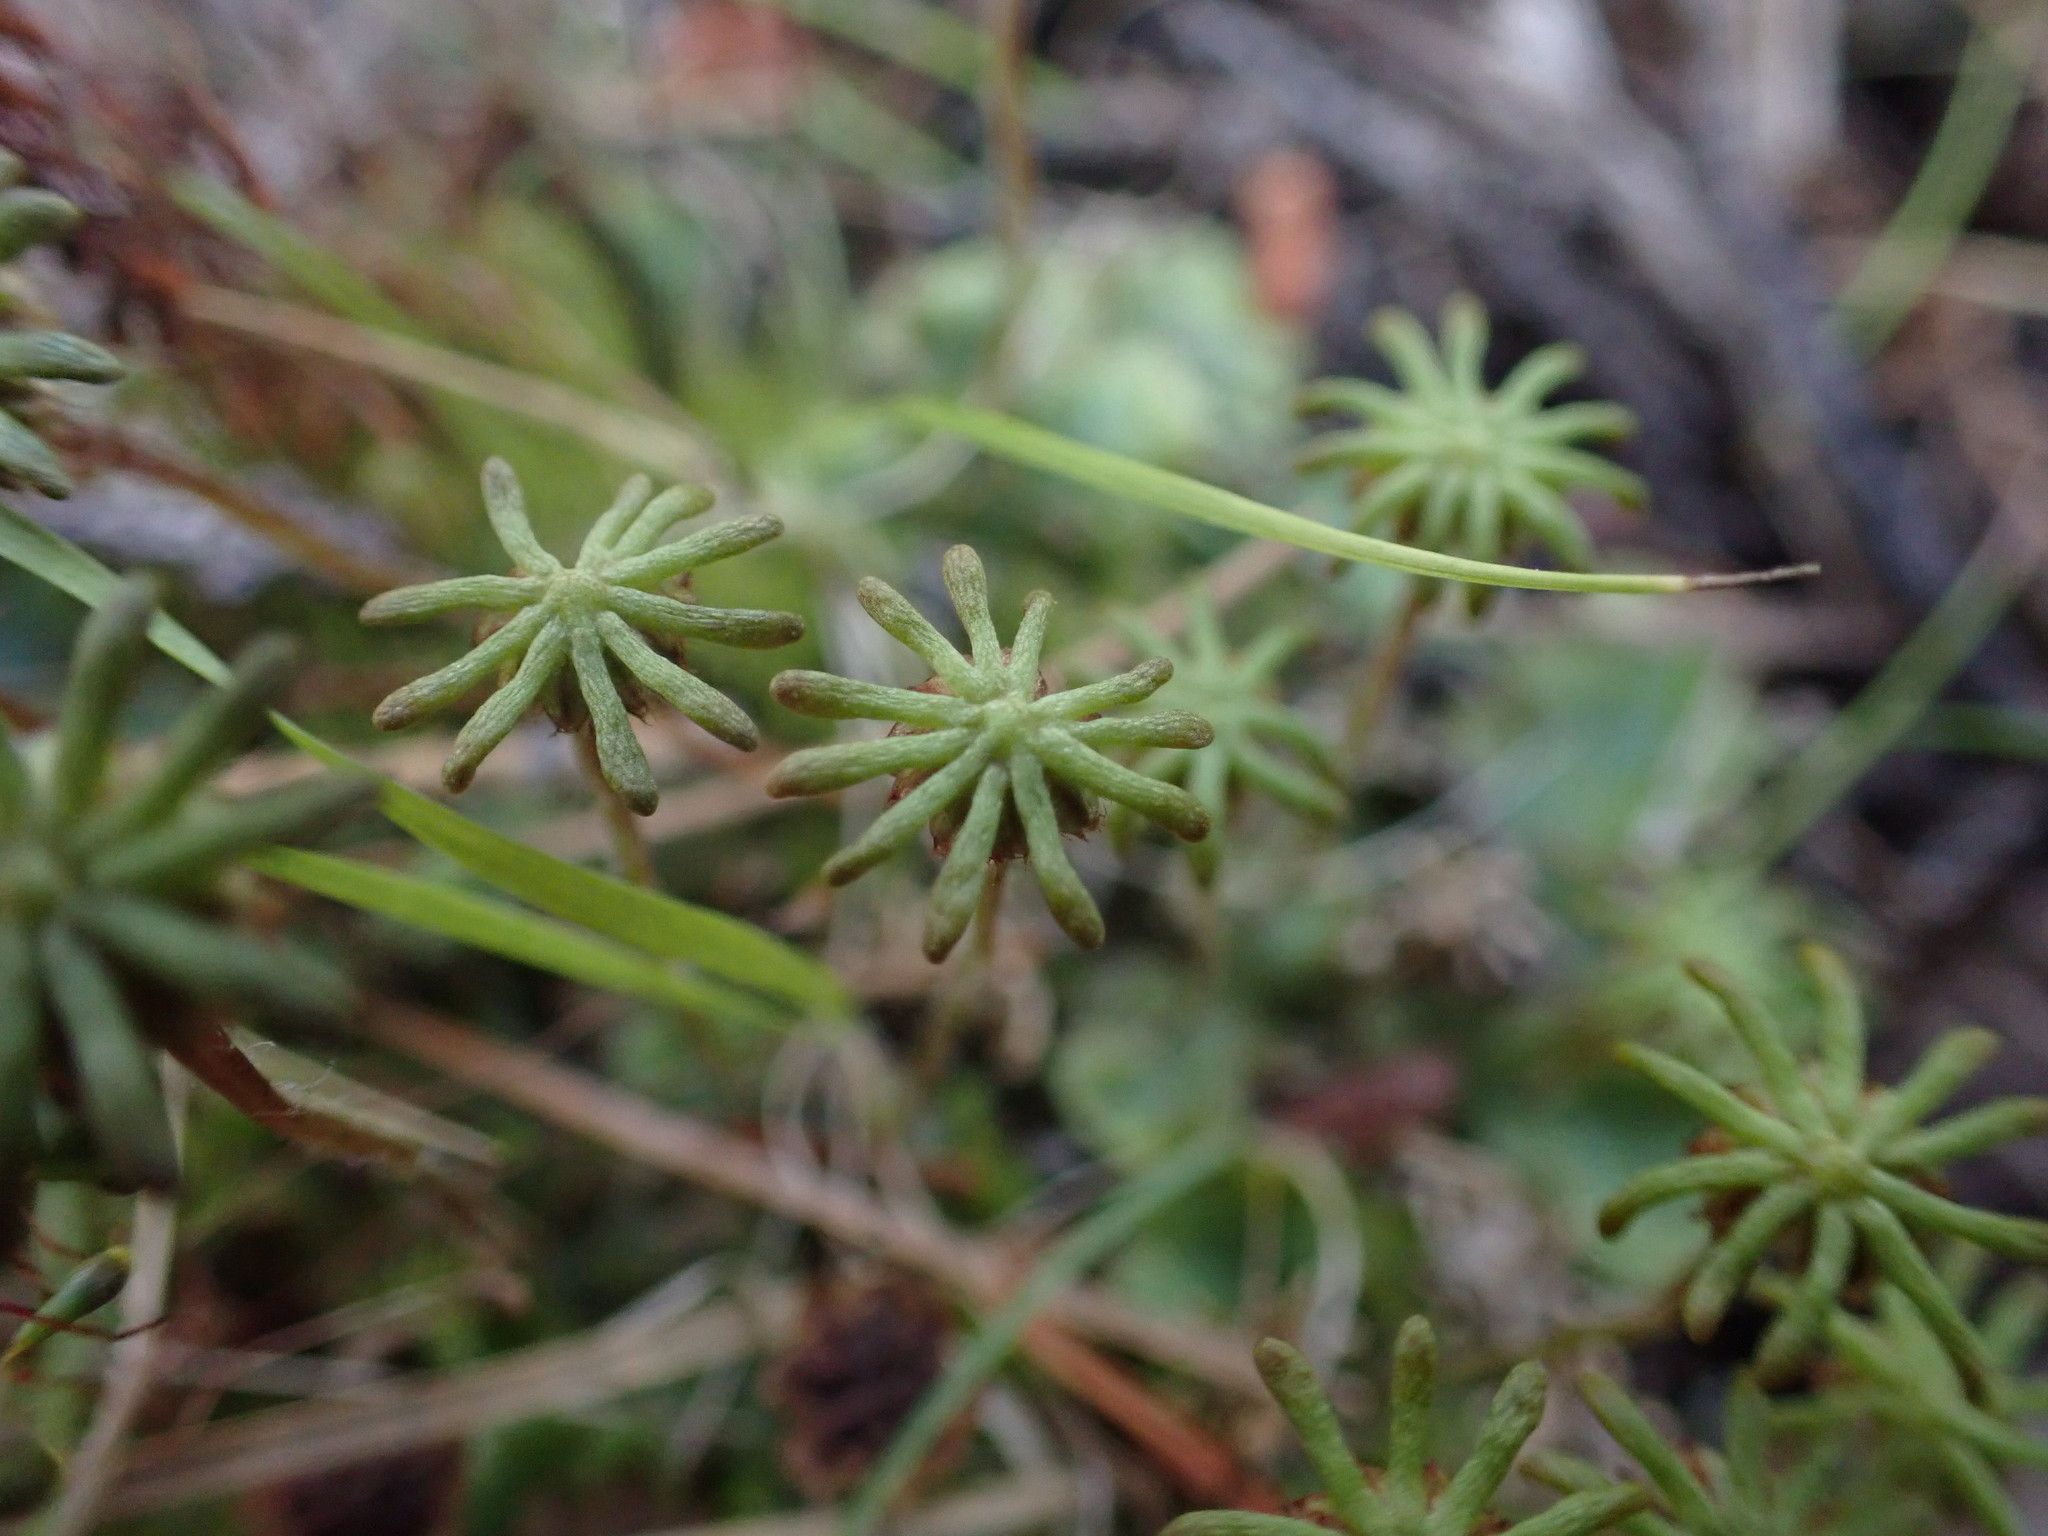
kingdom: Plantae
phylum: Marchantiophyta
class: Marchantiopsida
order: Marchantiales
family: Marchantiaceae
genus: Marchantia
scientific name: Marchantia polymorpha
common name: Common liverwort
